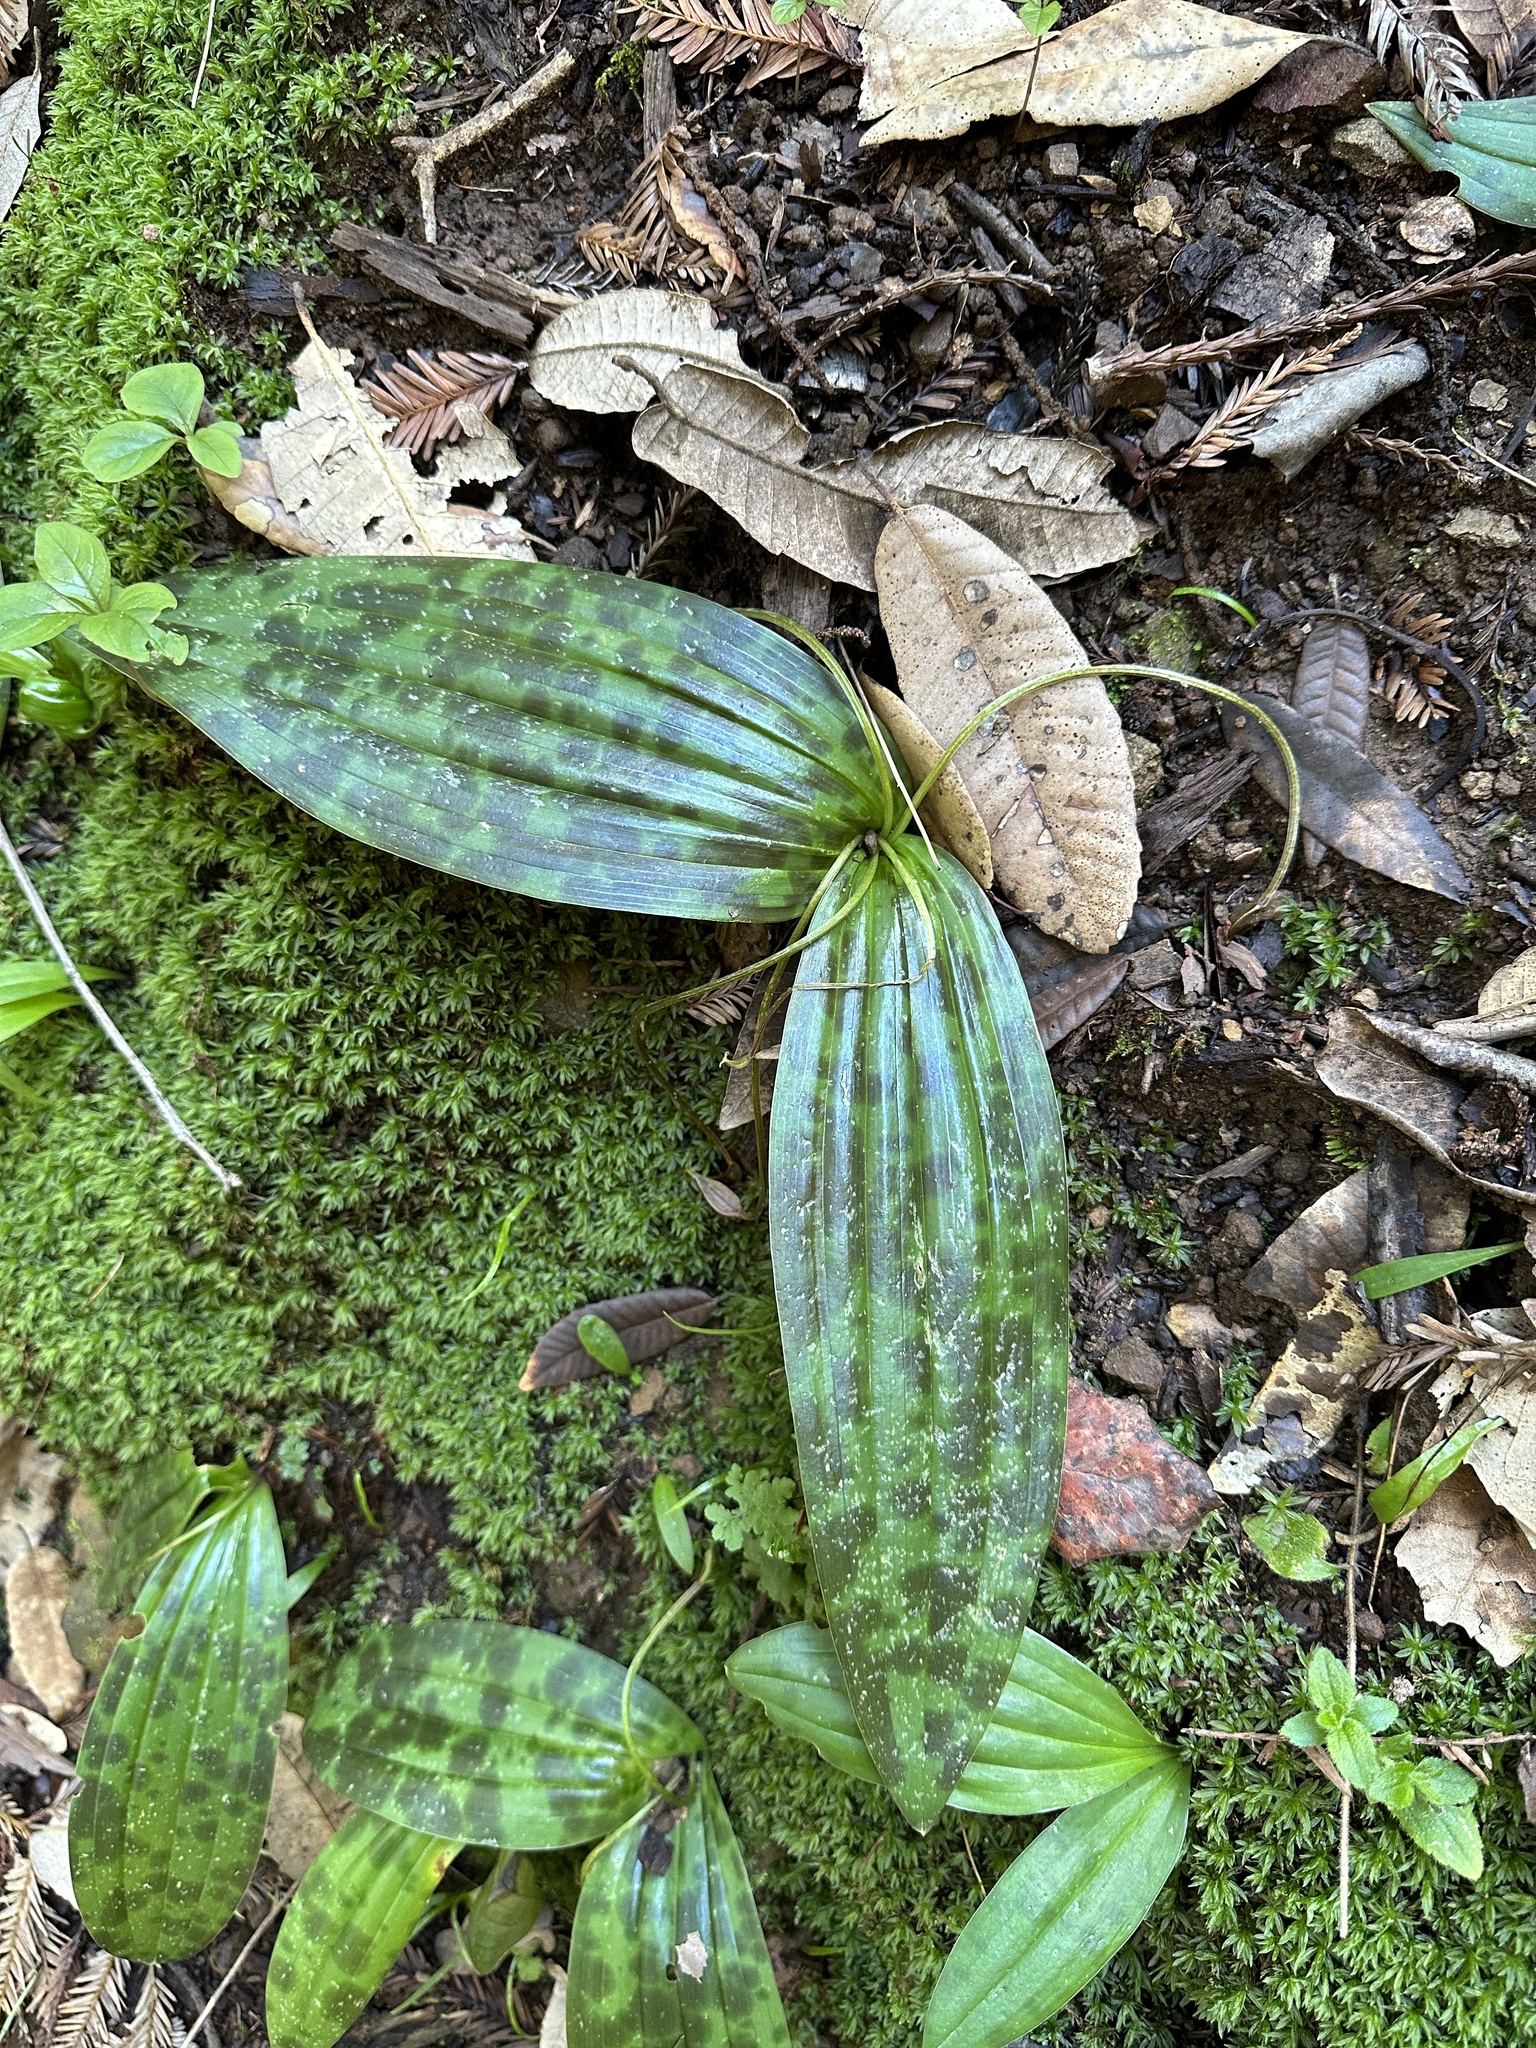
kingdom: Plantae
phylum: Tracheophyta
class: Liliopsida
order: Liliales
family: Liliaceae
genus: Scoliopus
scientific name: Scoliopus bigelovii
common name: Foetid adder's-tongue
